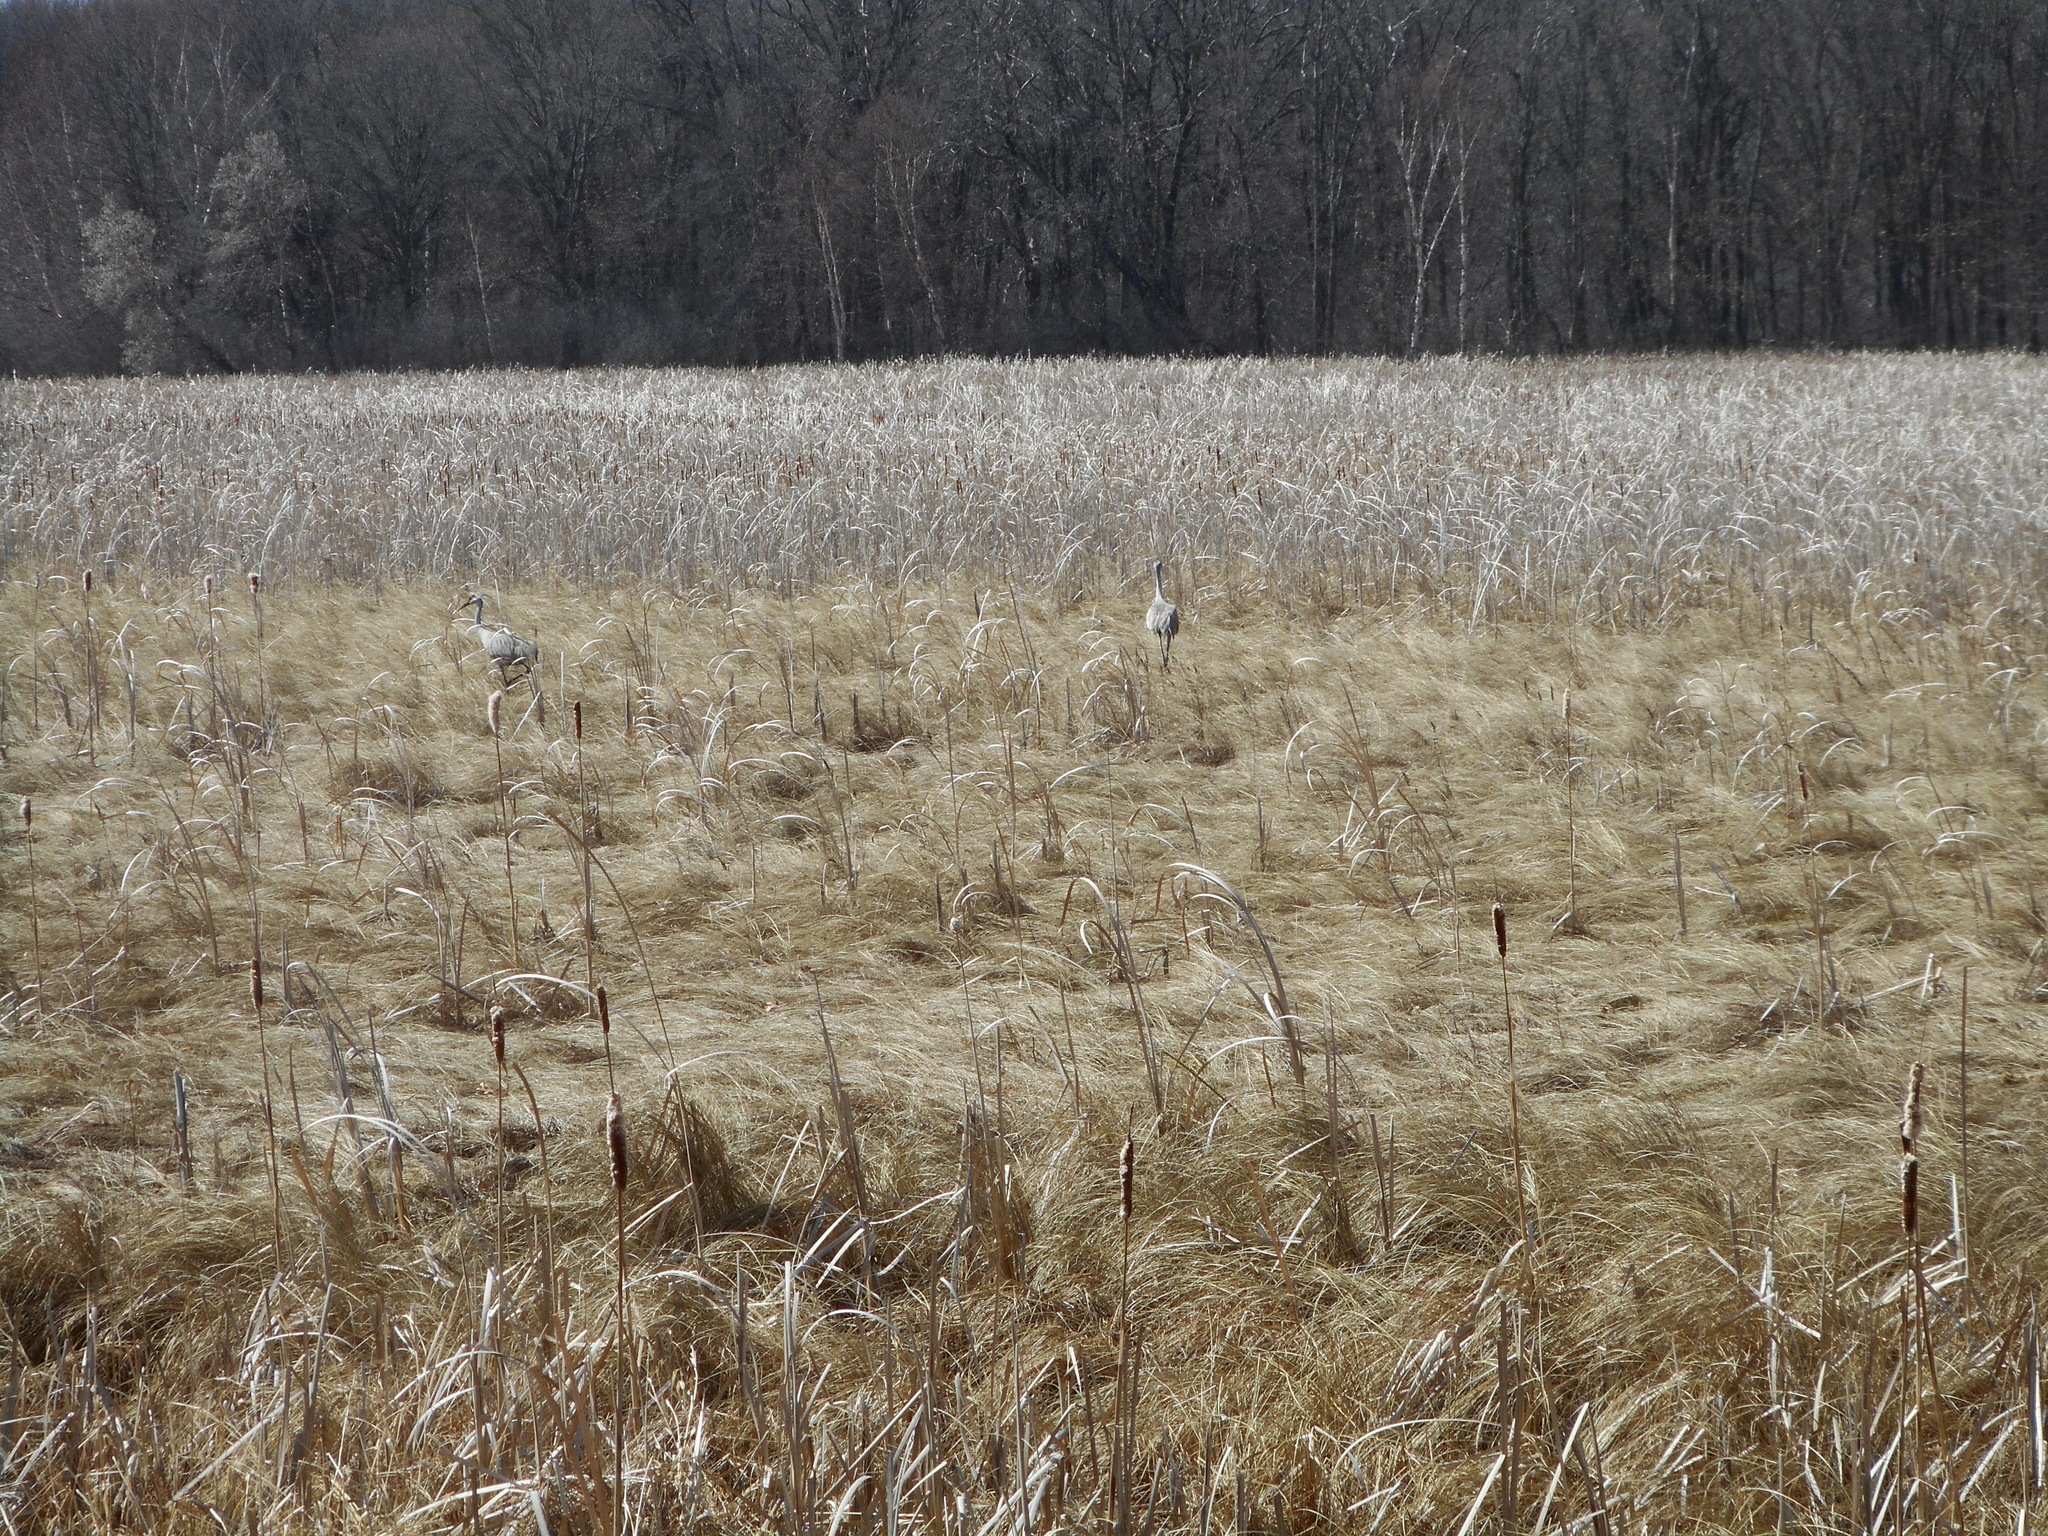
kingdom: Animalia
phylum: Chordata
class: Aves
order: Gruiformes
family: Gruidae
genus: Grus
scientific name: Grus canadensis
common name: Sandhill crane
